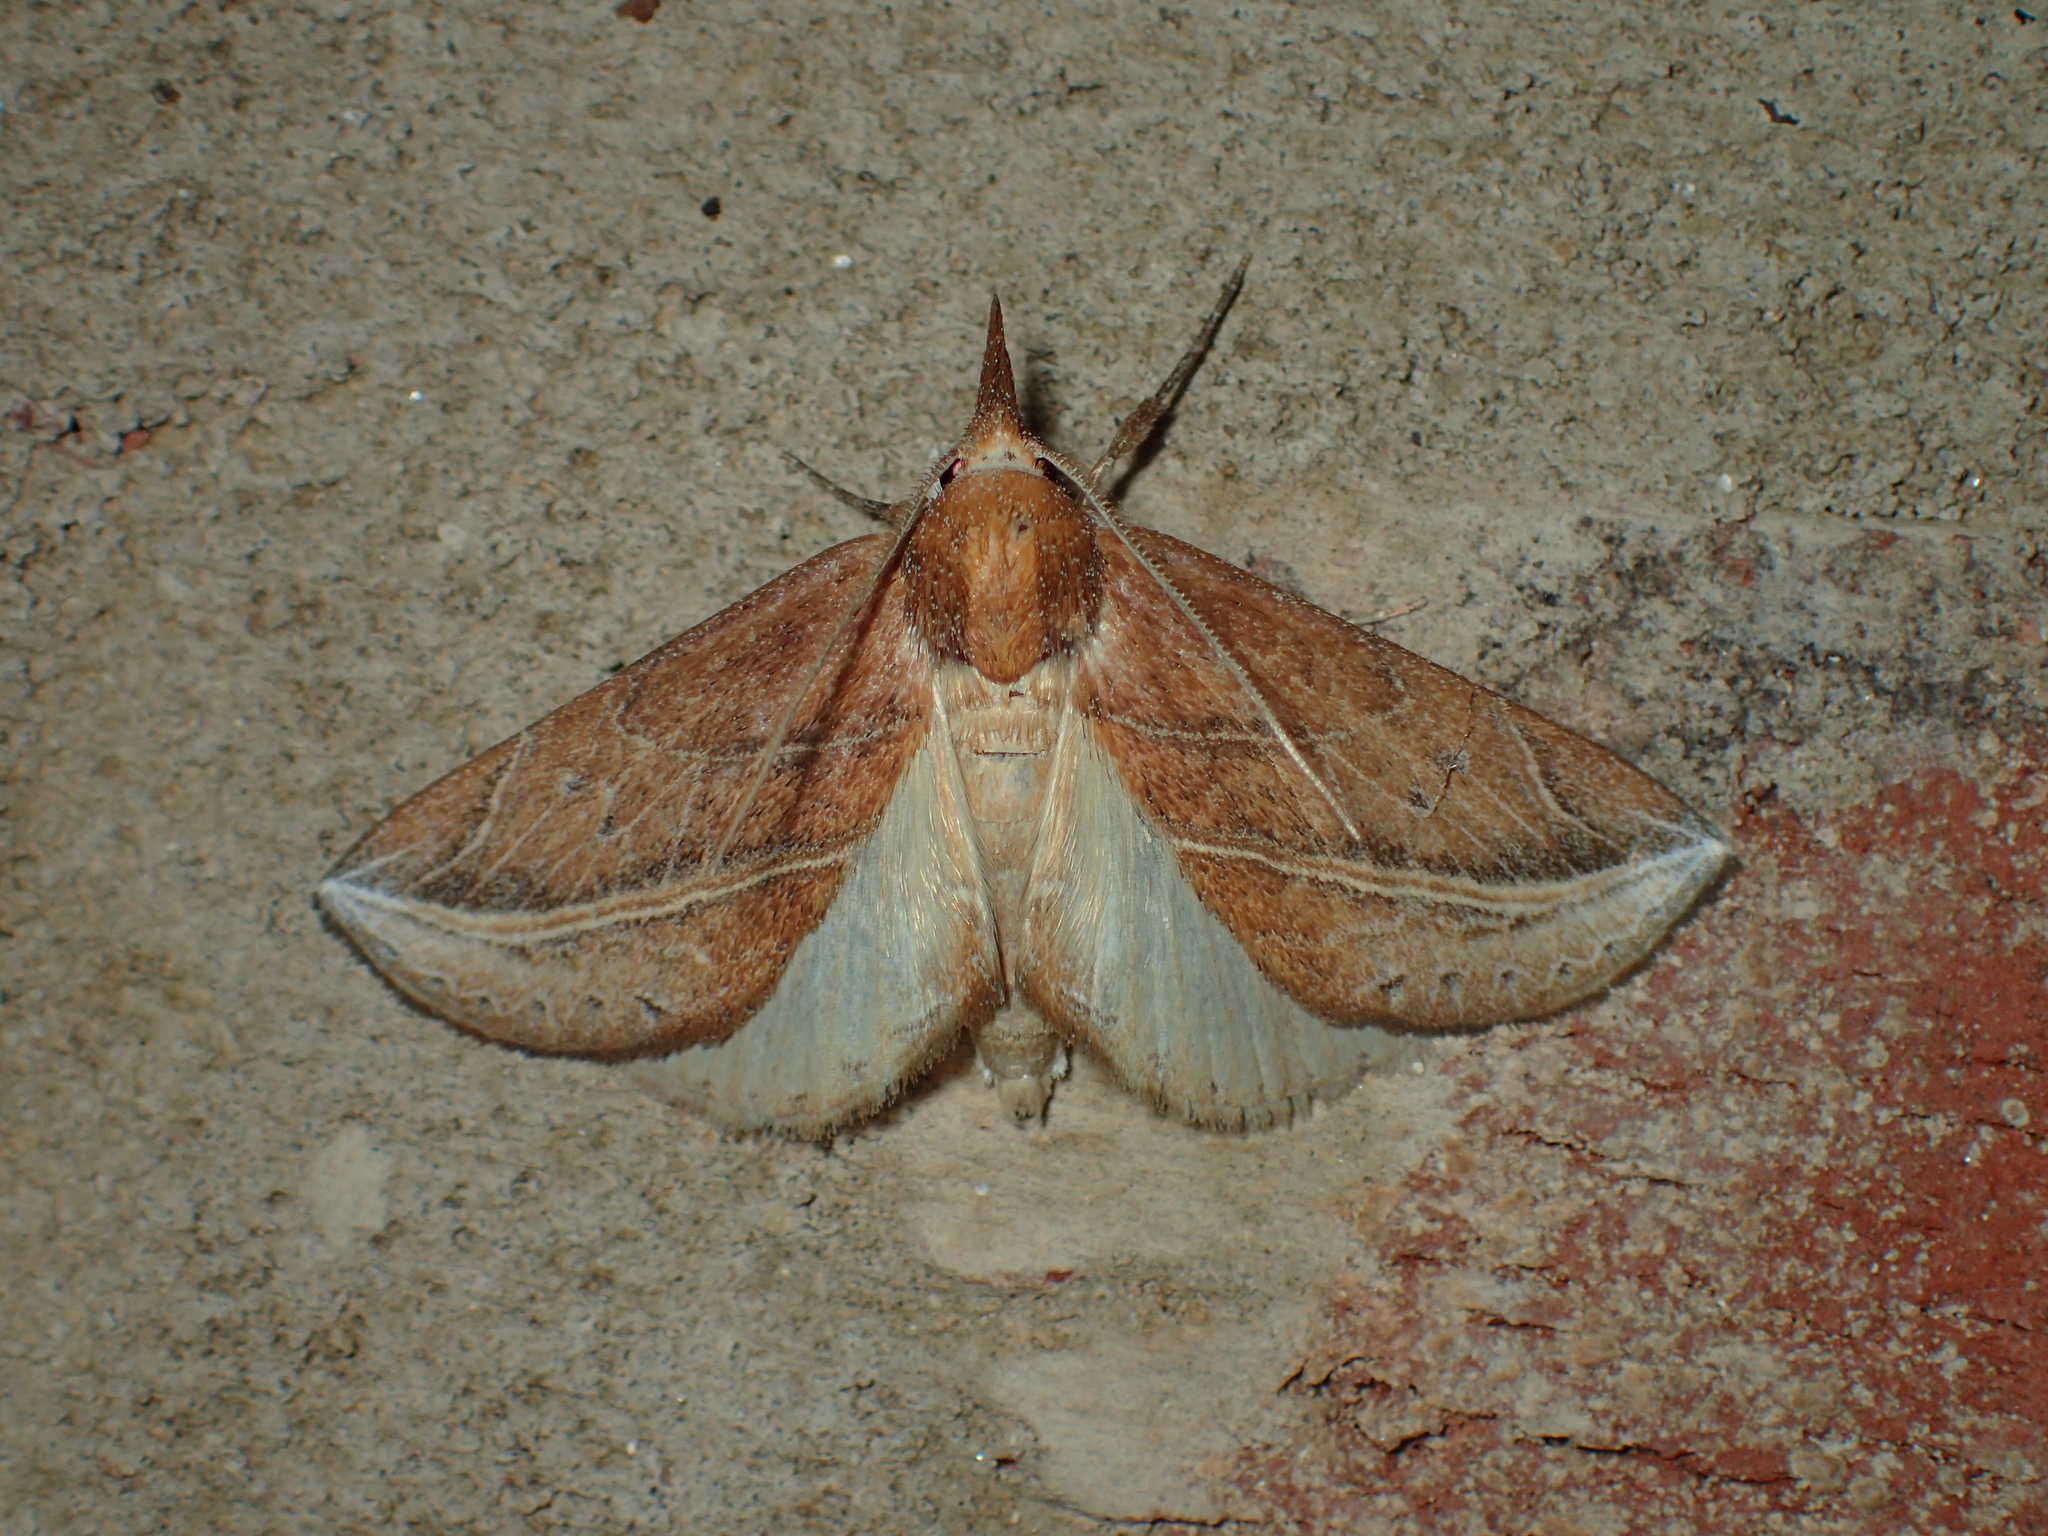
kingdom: Animalia
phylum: Arthropoda
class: Insecta
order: Lepidoptera
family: Erebidae
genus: Phyprosopus
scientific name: Phyprosopus callitrichoides
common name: Curved-lined owlet
